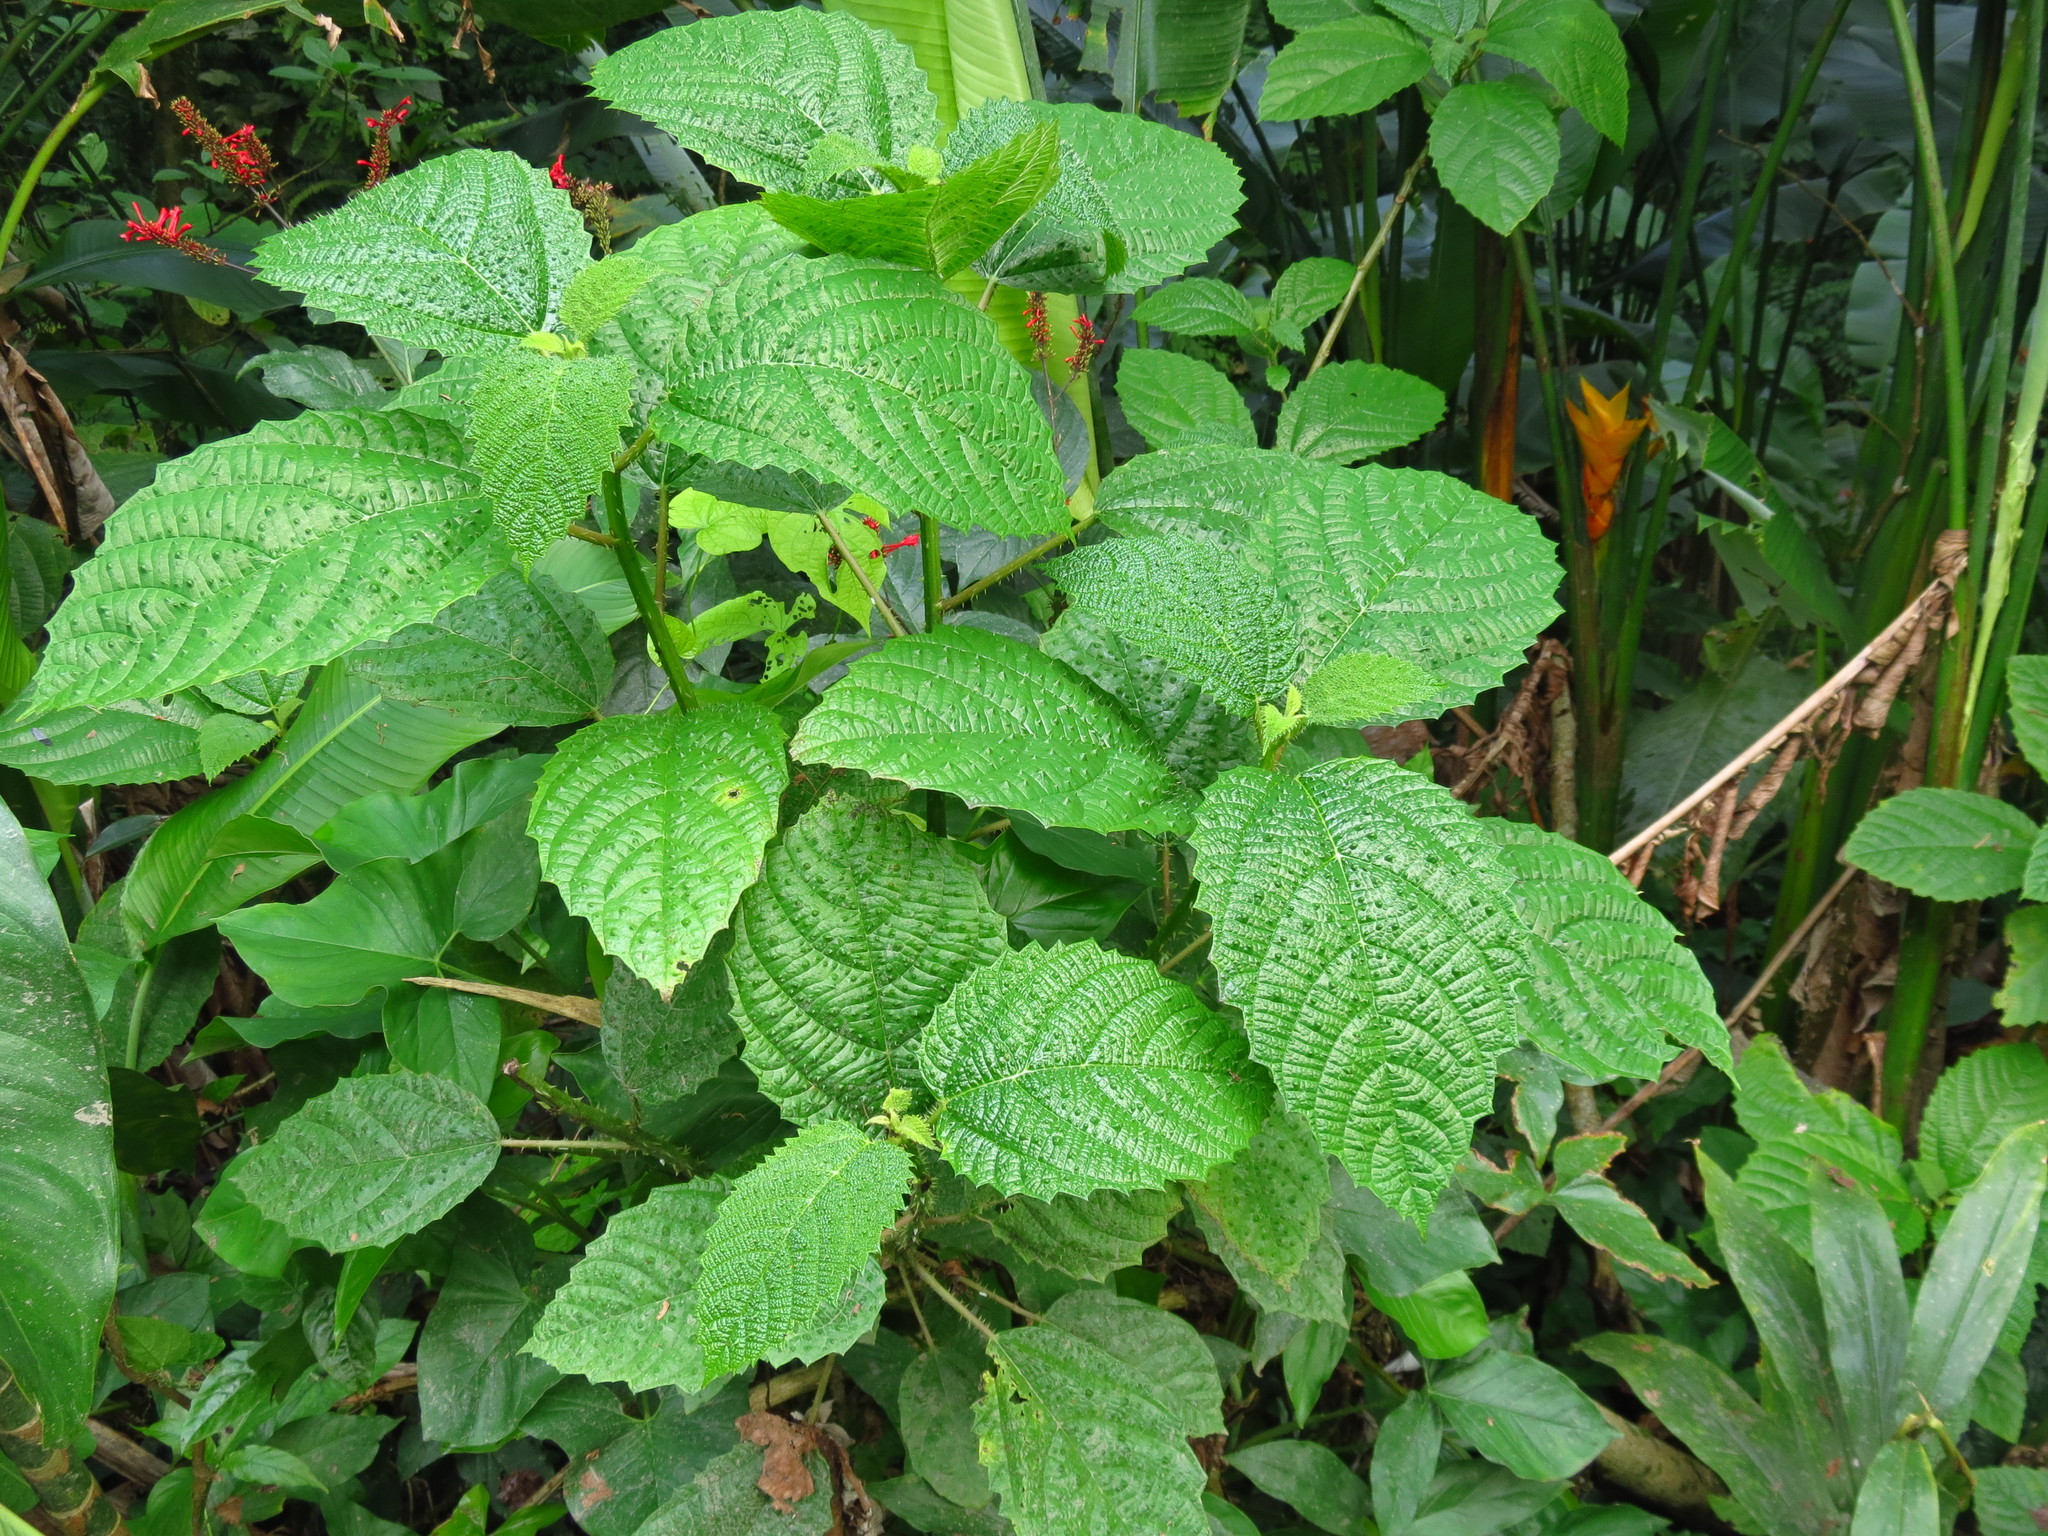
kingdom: Plantae
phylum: Tracheophyta
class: Magnoliopsida
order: Rosales
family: Urticaceae
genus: Urera
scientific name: Urera baccifera
